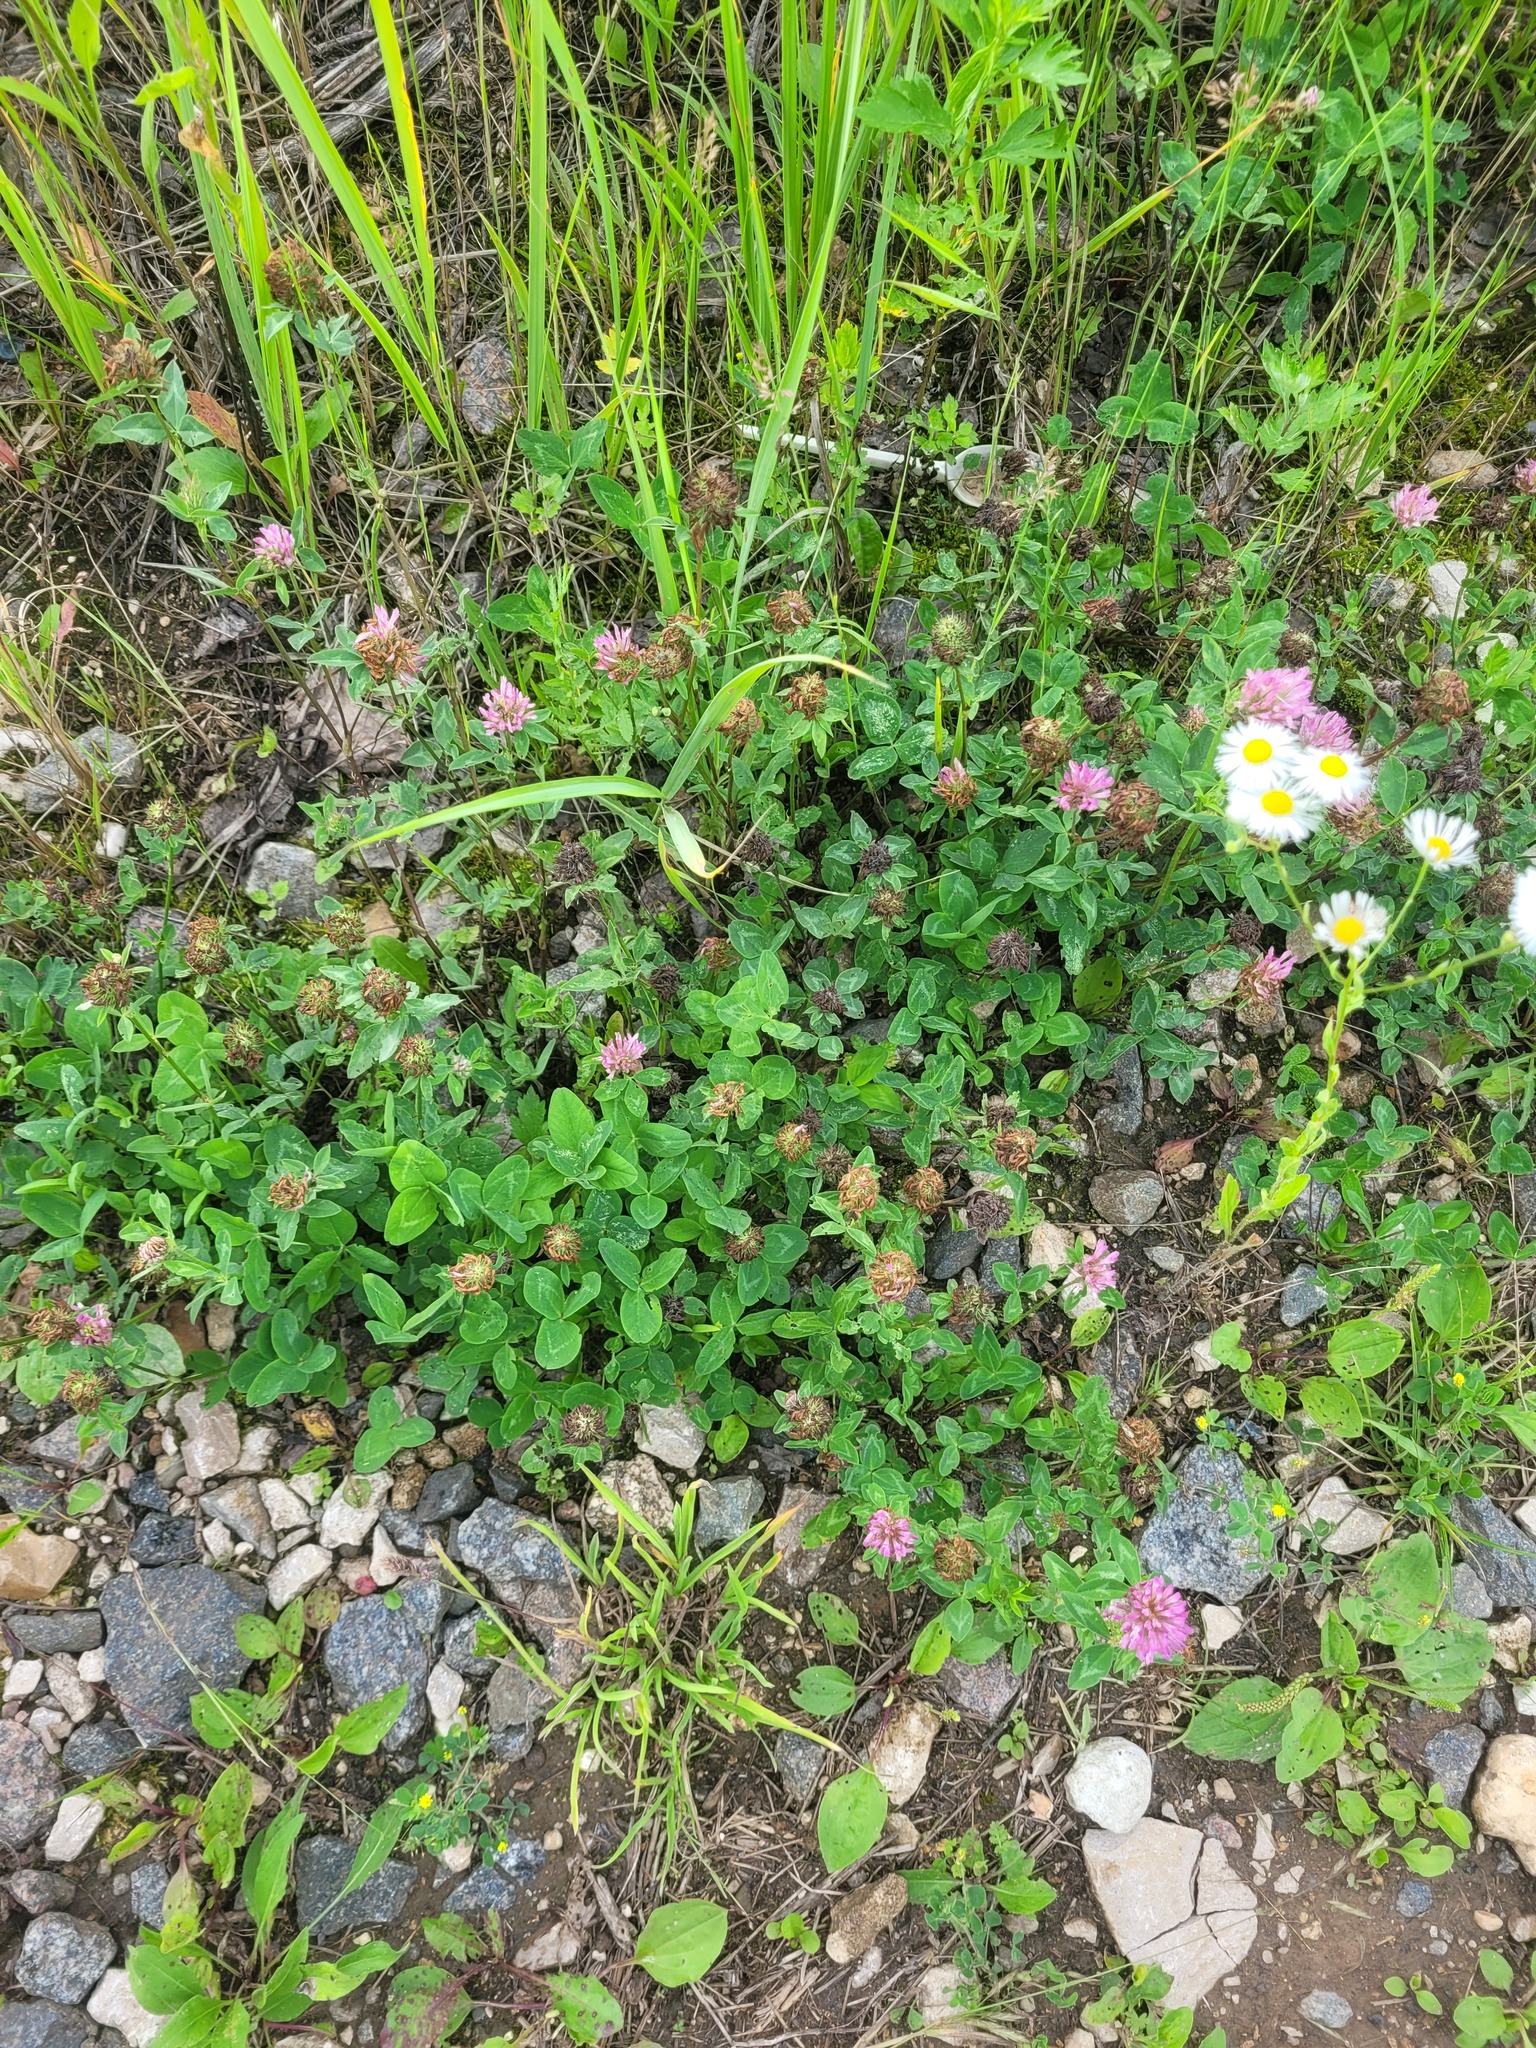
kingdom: Plantae
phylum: Tracheophyta
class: Magnoliopsida
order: Fabales
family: Fabaceae
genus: Trifolium
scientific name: Trifolium pratense
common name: Red clover
